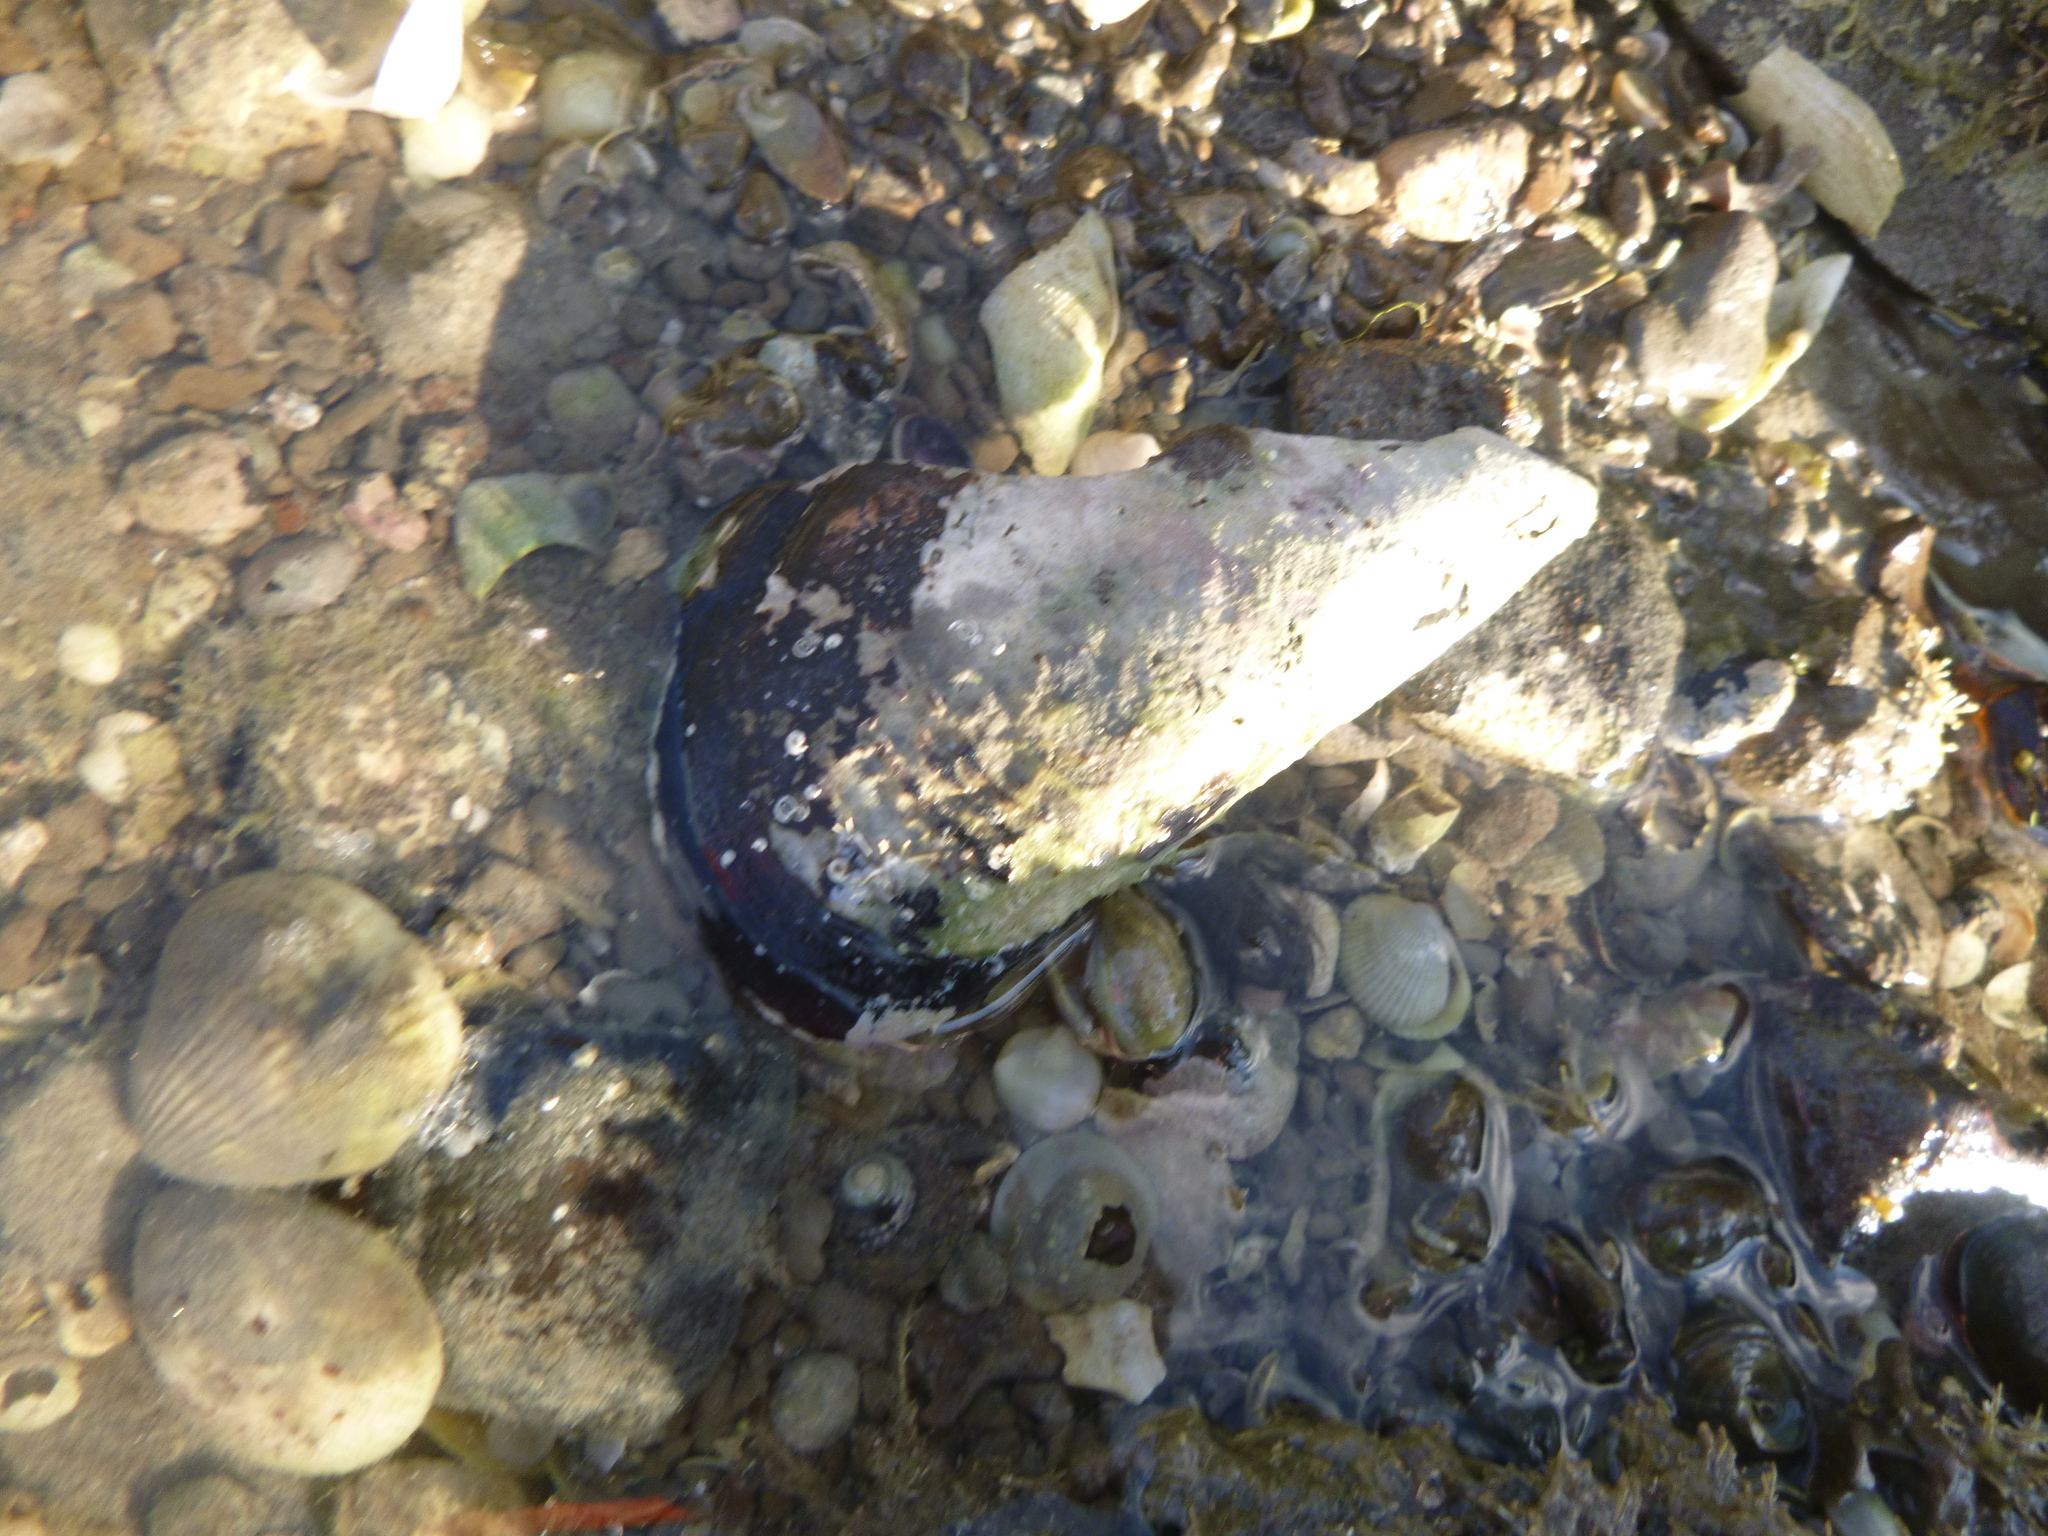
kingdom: Animalia
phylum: Mollusca
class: Bivalvia
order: Mytilida
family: Mytilidae
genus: Perna
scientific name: Perna canaliculus
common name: New zealand greenshelltm
